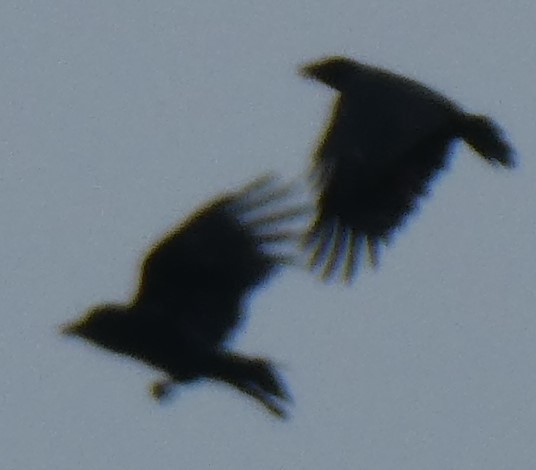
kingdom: Animalia
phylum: Chordata
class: Aves
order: Passeriformes
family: Corvidae
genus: Corvus
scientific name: Corvus corone
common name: Carrion crow
